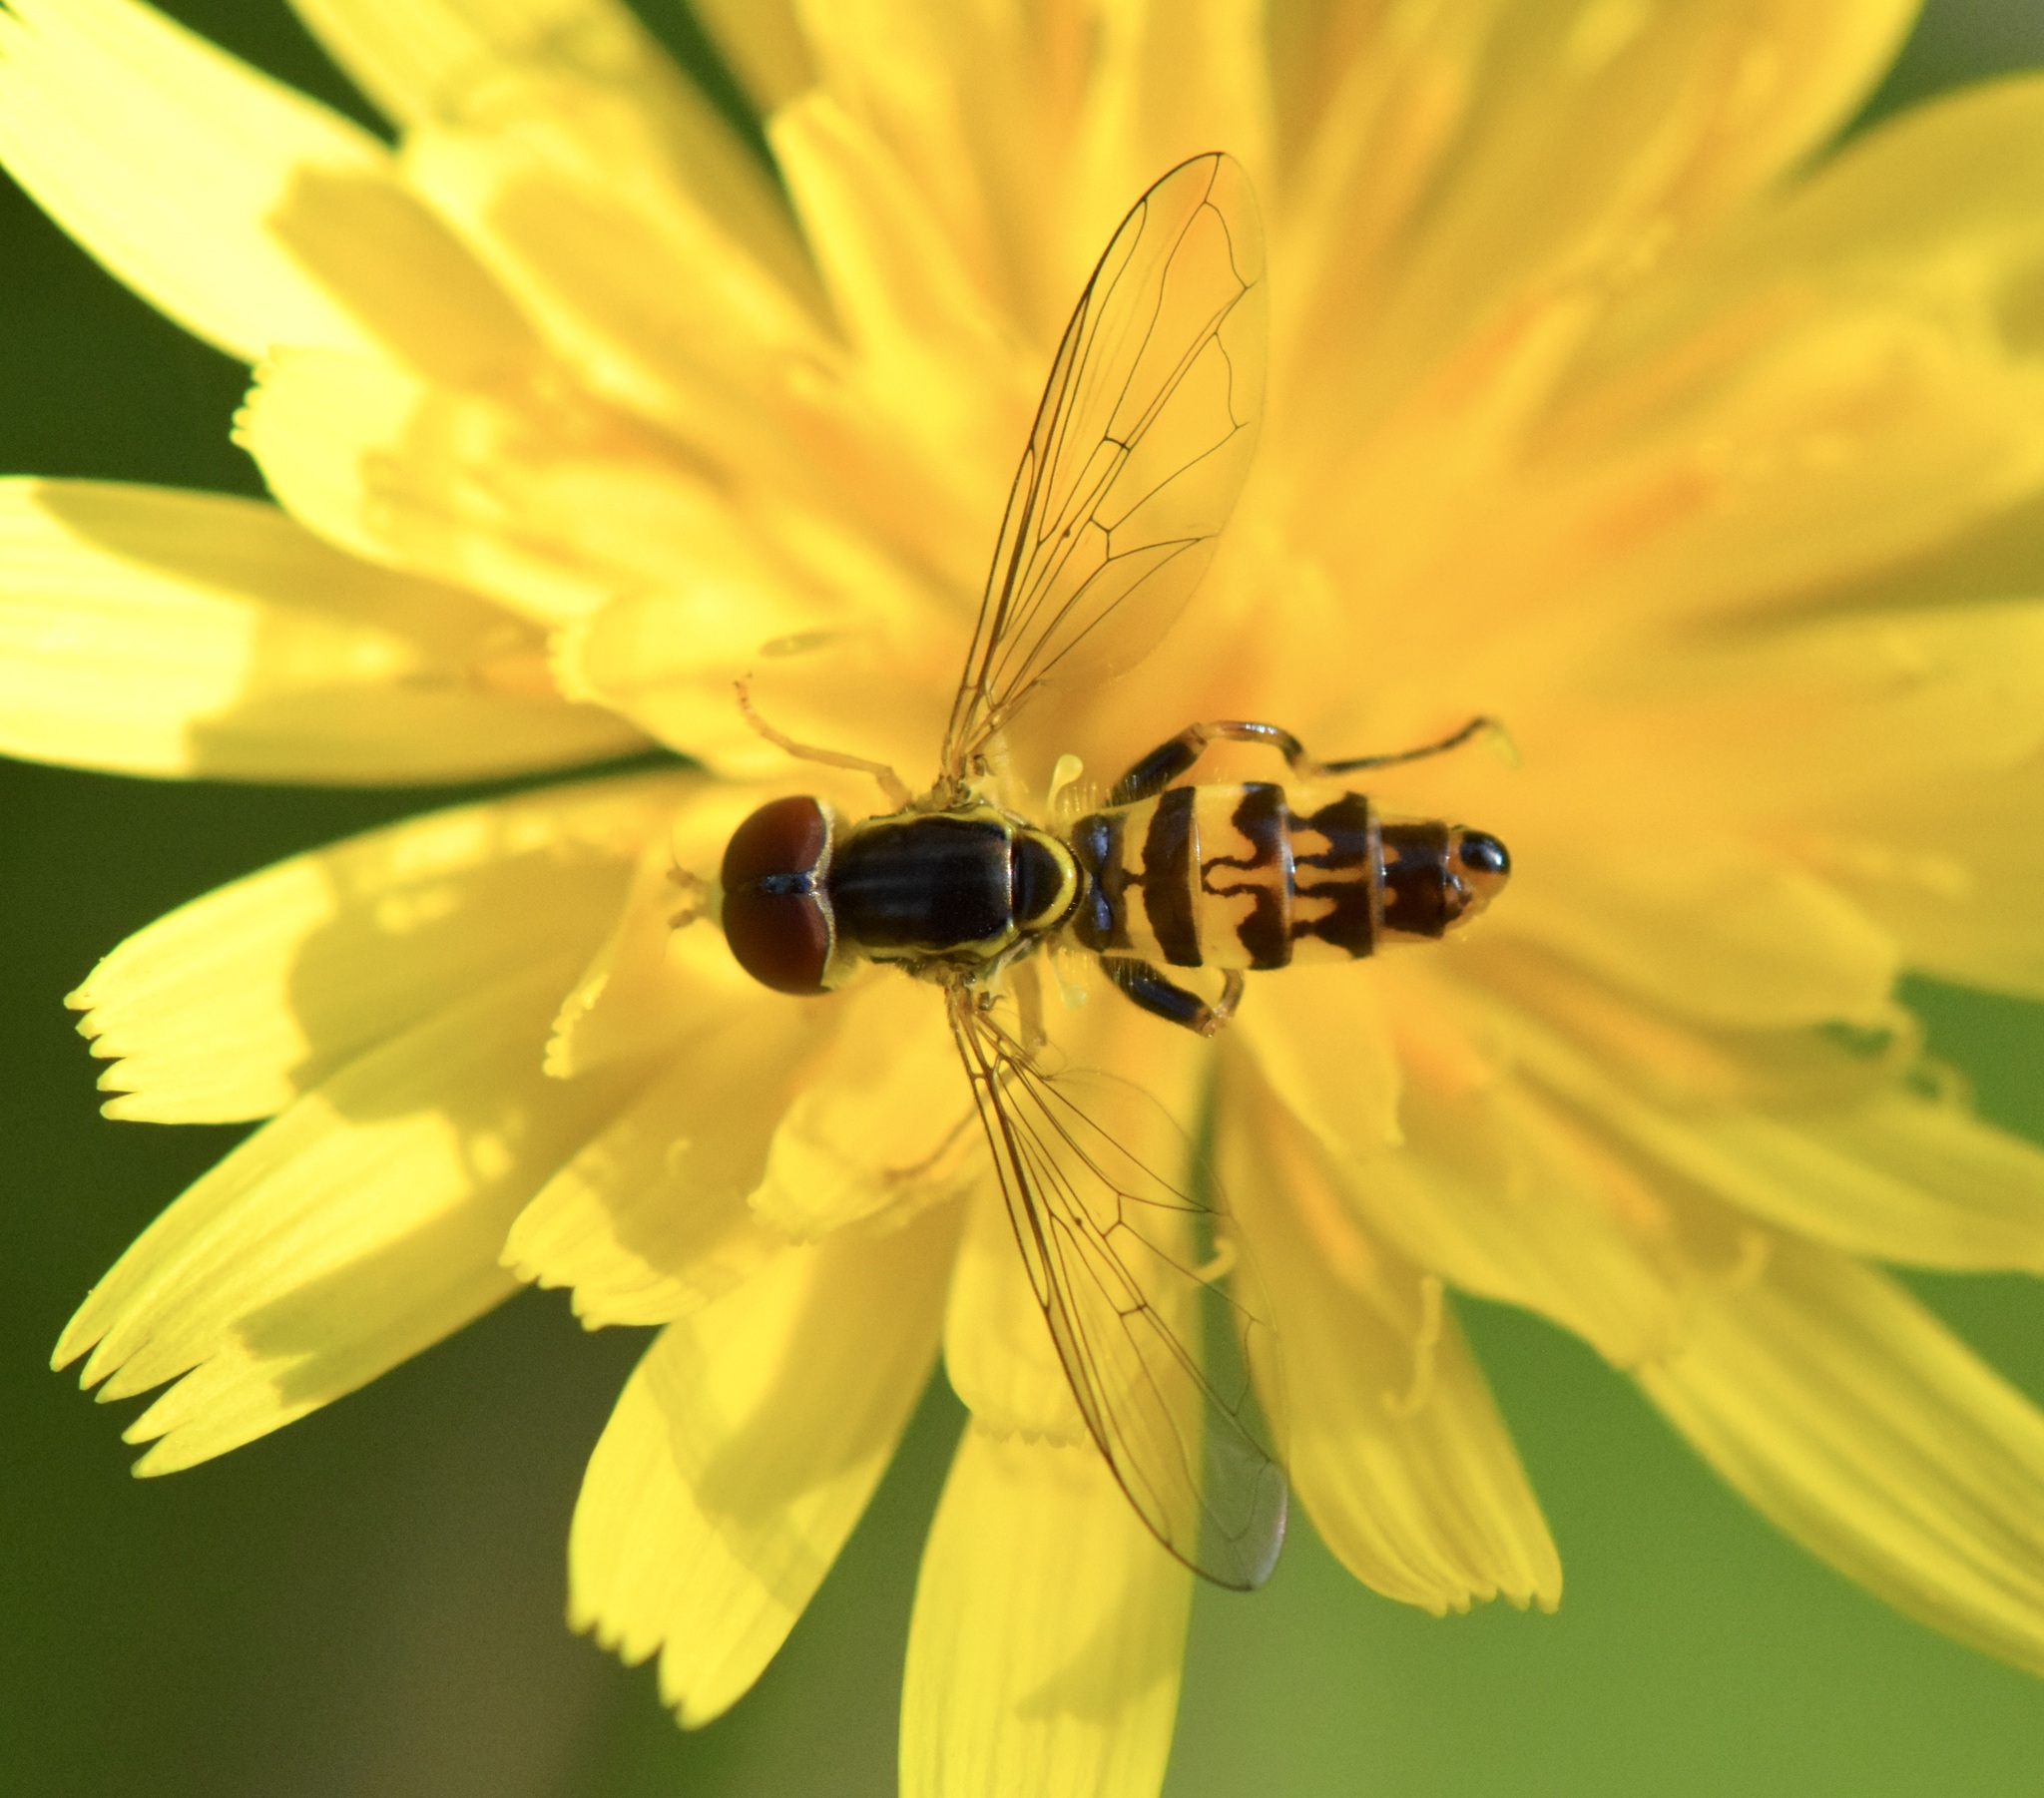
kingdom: Animalia
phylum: Arthropoda
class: Insecta
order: Diptera
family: Syrphidae
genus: Toxomerus
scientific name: Toxomerus geminatus
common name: Eastern calligrapher
